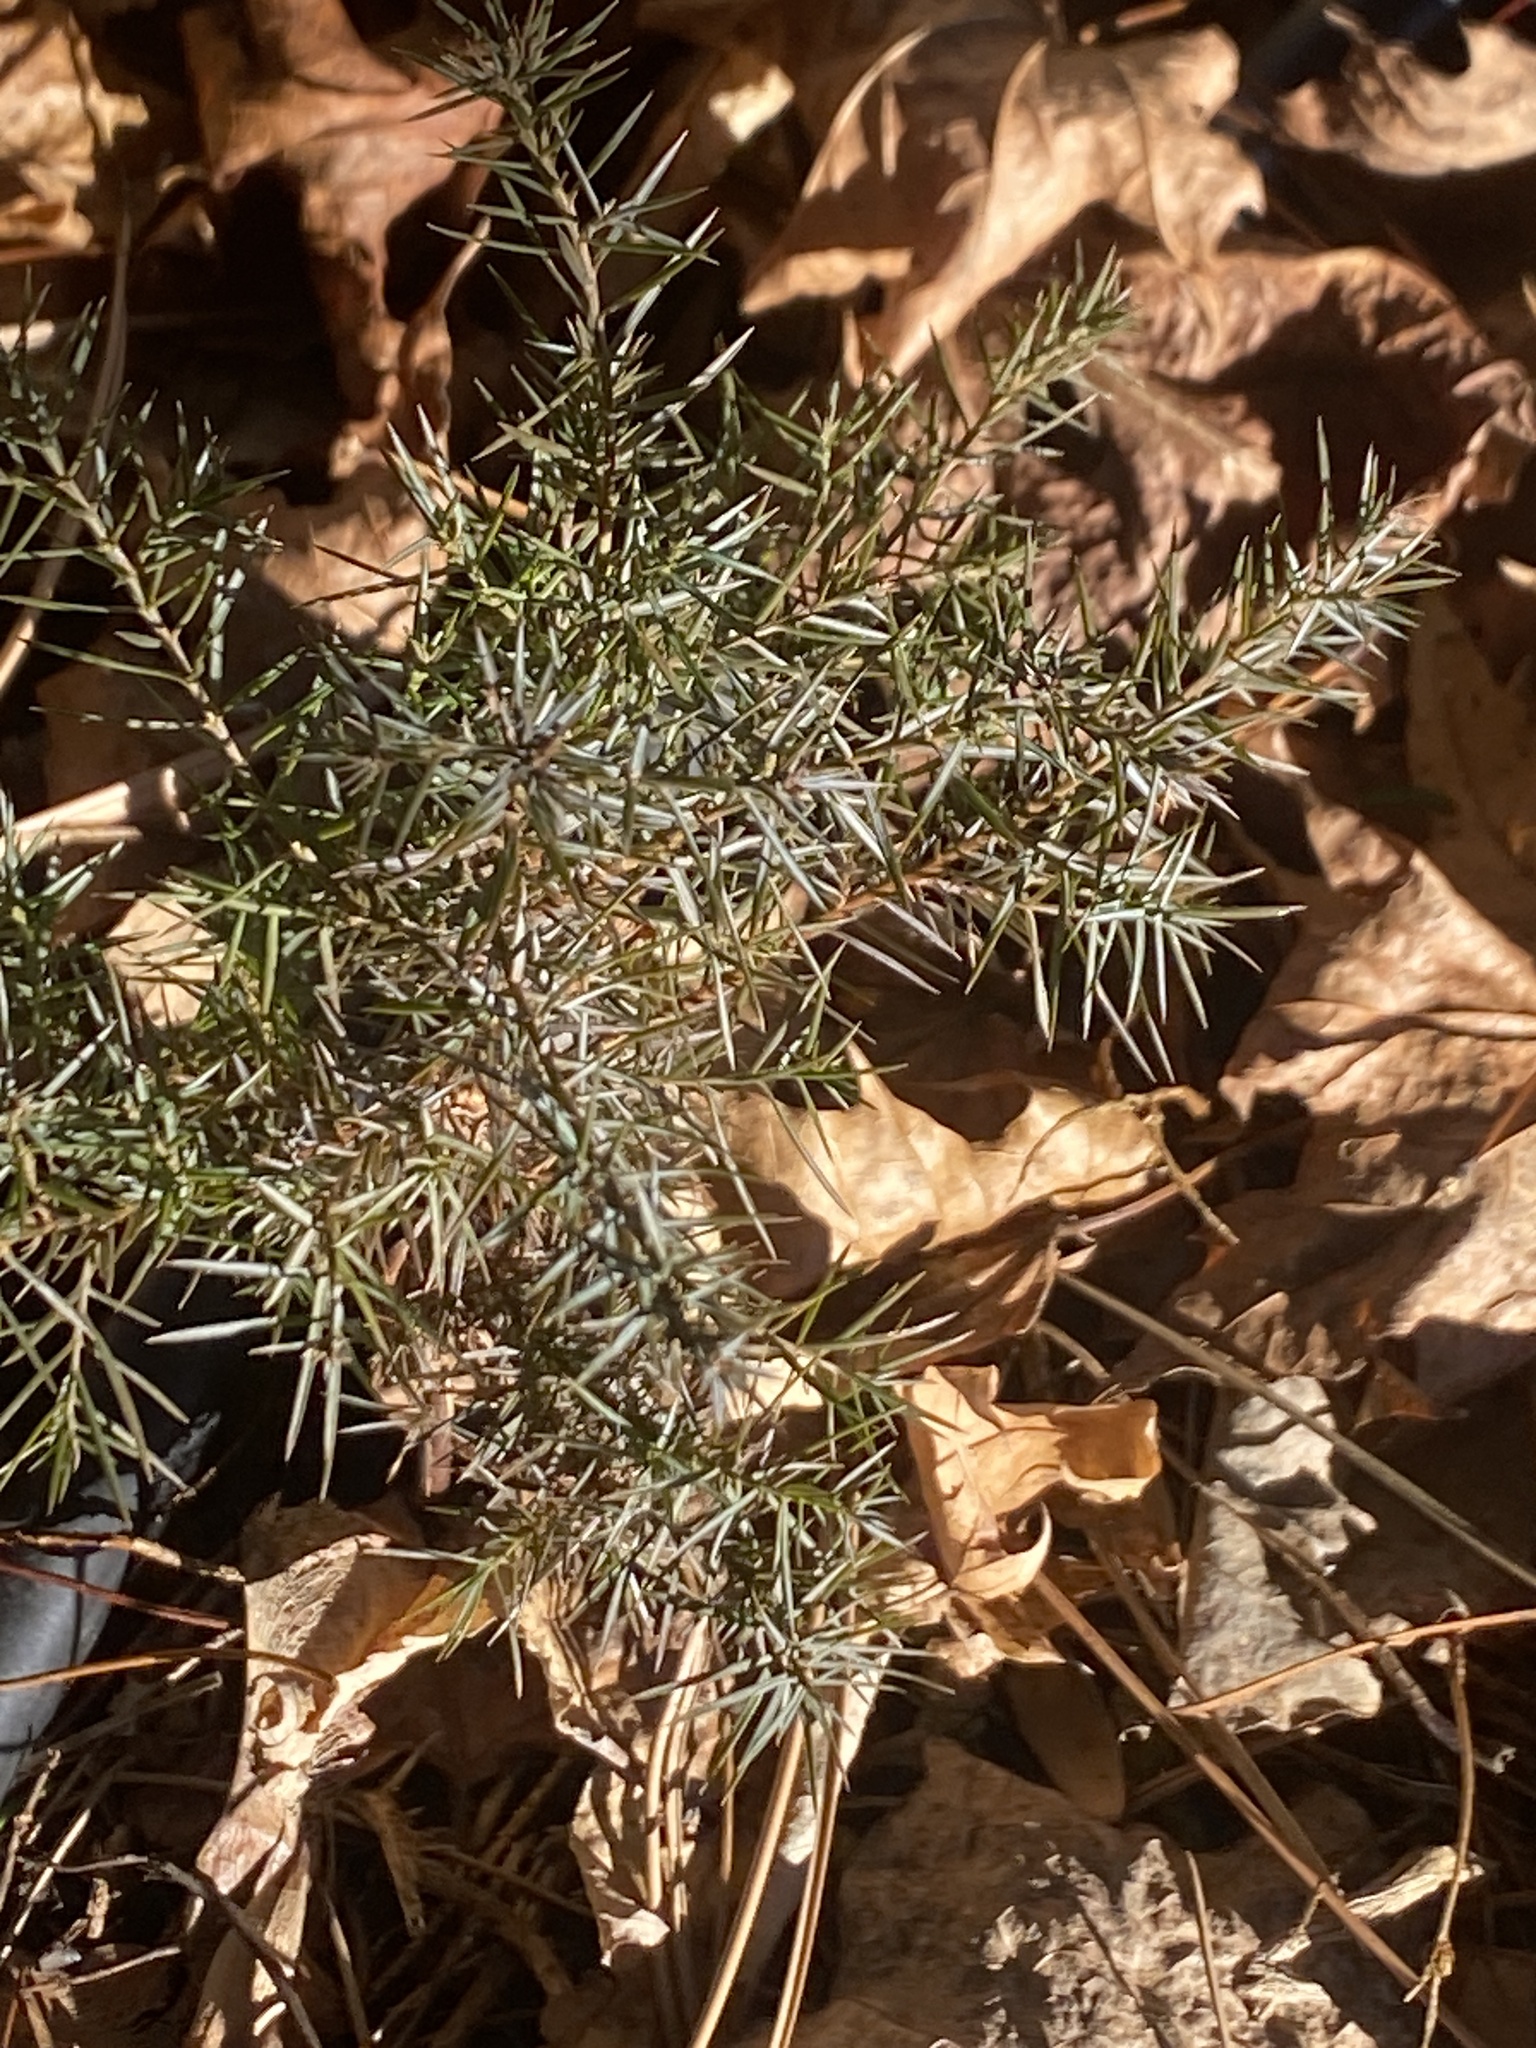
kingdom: Plantae
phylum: Tracheophyta
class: Pinopsida
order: Pinales
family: Cupressaceae
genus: Juniperus
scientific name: Juniperus virginiana
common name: Red juniper
